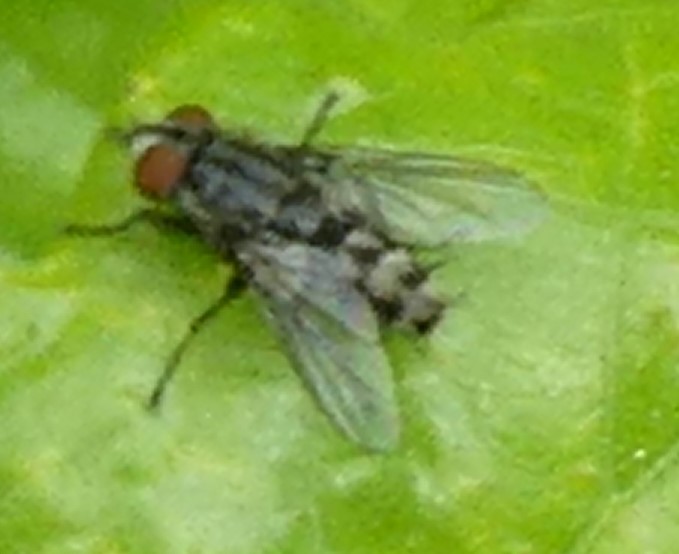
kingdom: Animalia
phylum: Arthropoda
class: Insecta
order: Diptera
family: Sarcophagidae
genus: Amobia
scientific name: Amobia signata
